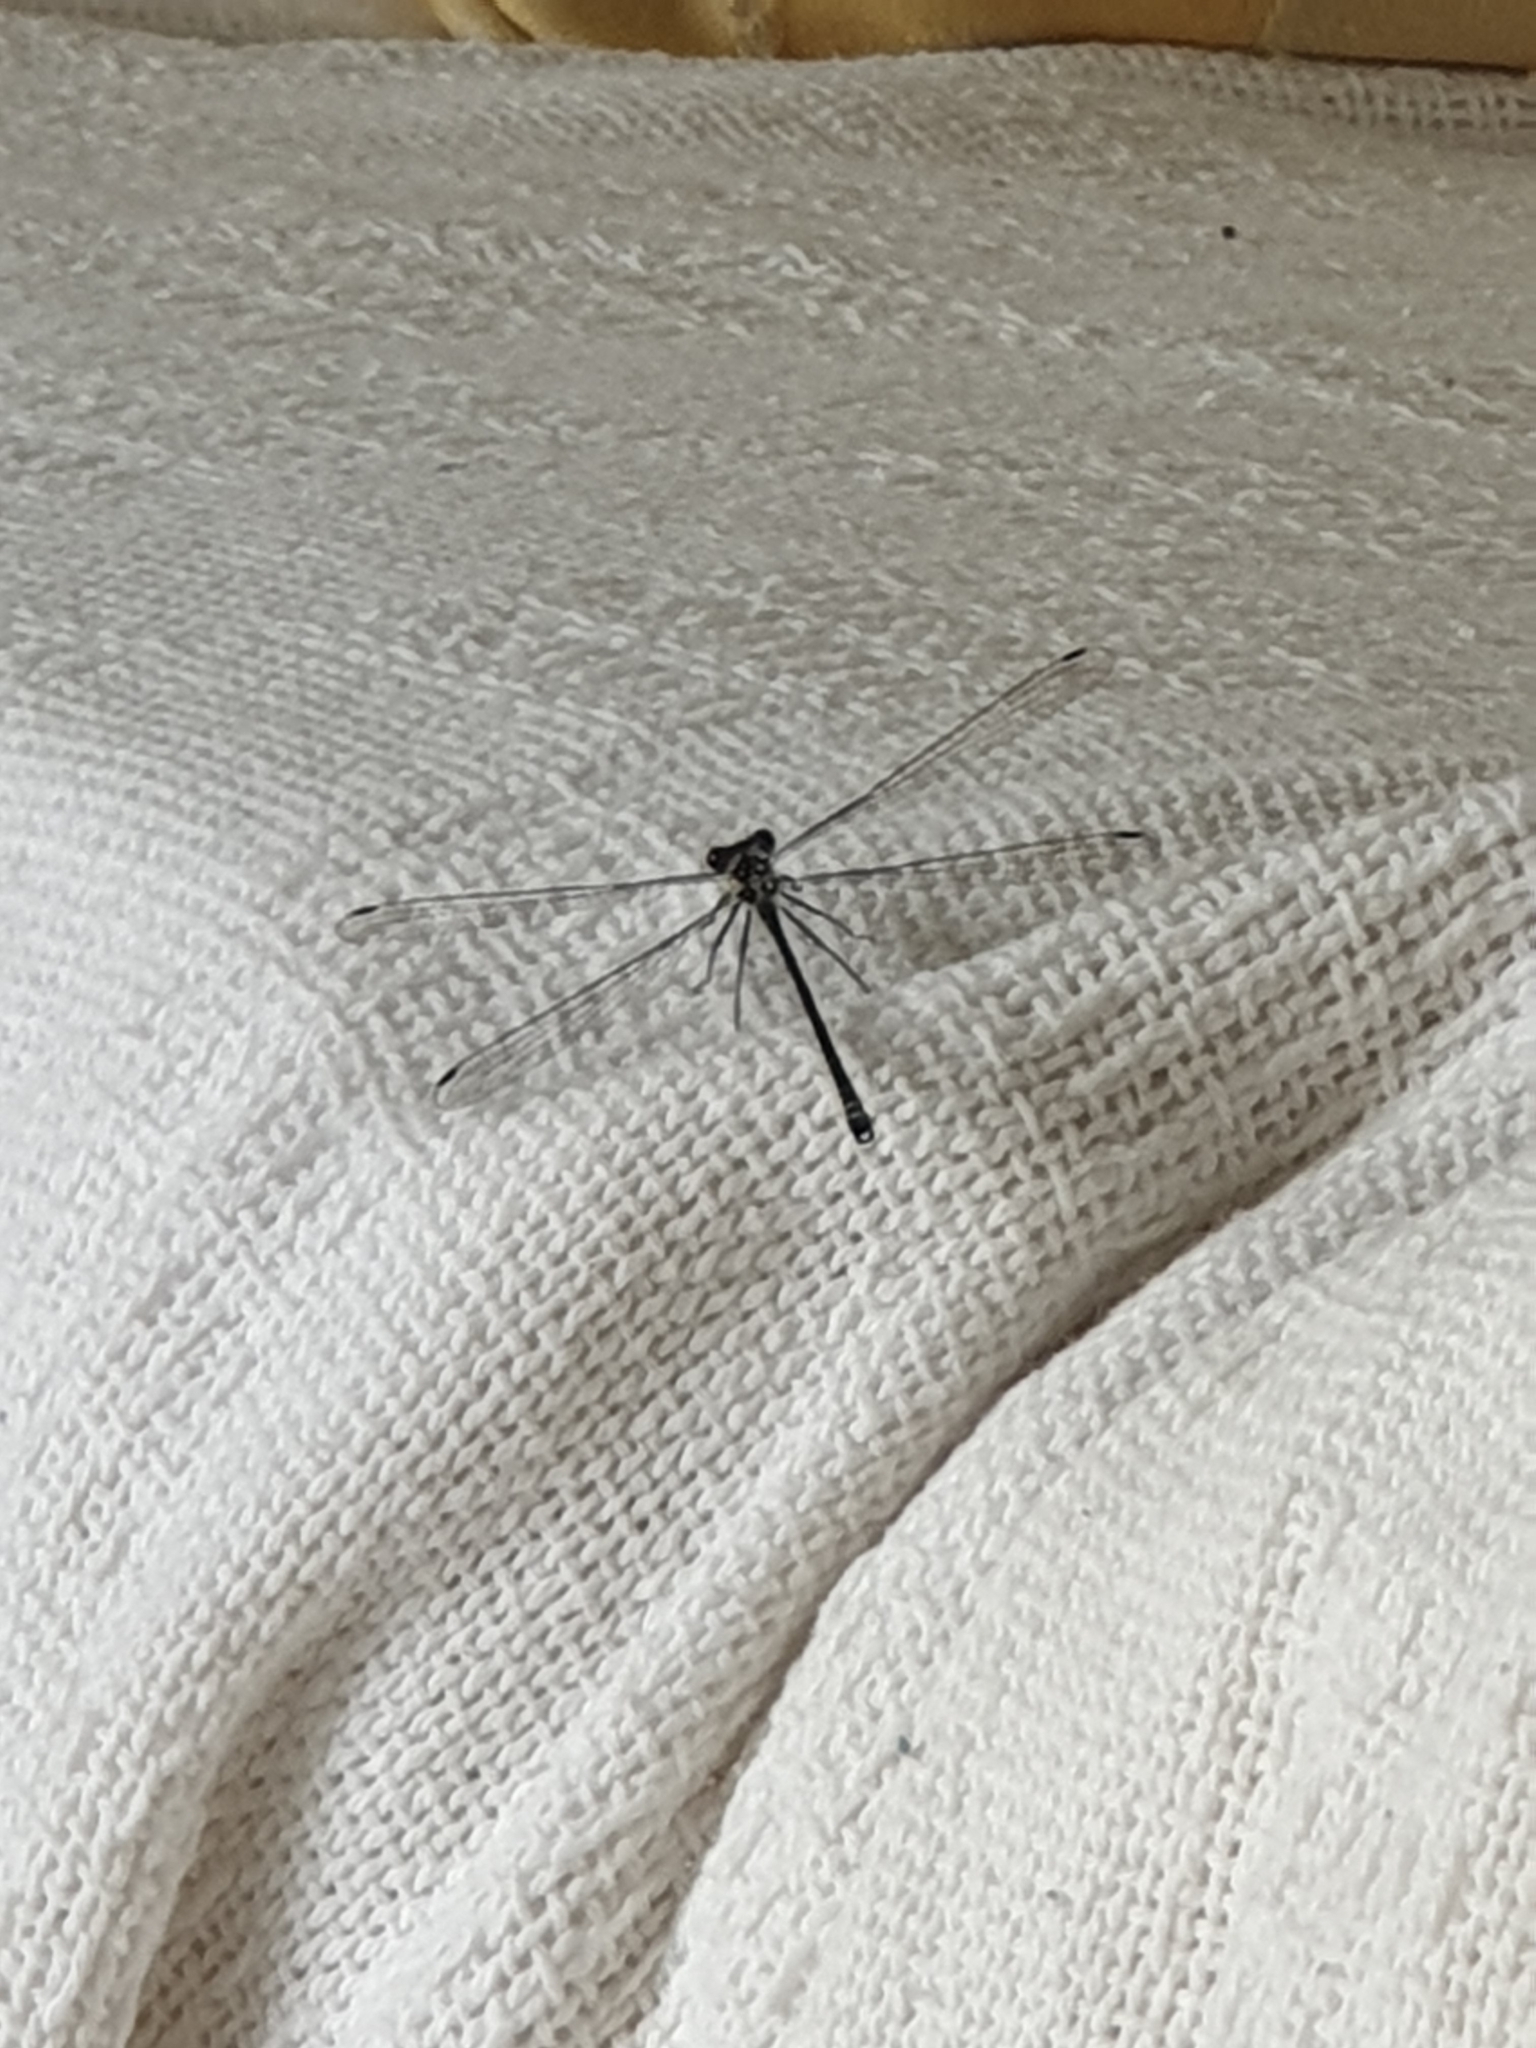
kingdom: Animalia
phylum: Arthropoda
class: Insecta
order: Odonata
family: Argiolestidae
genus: Austroargiolestes
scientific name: Austroargiolestes icteromelas
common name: Common flatwing
